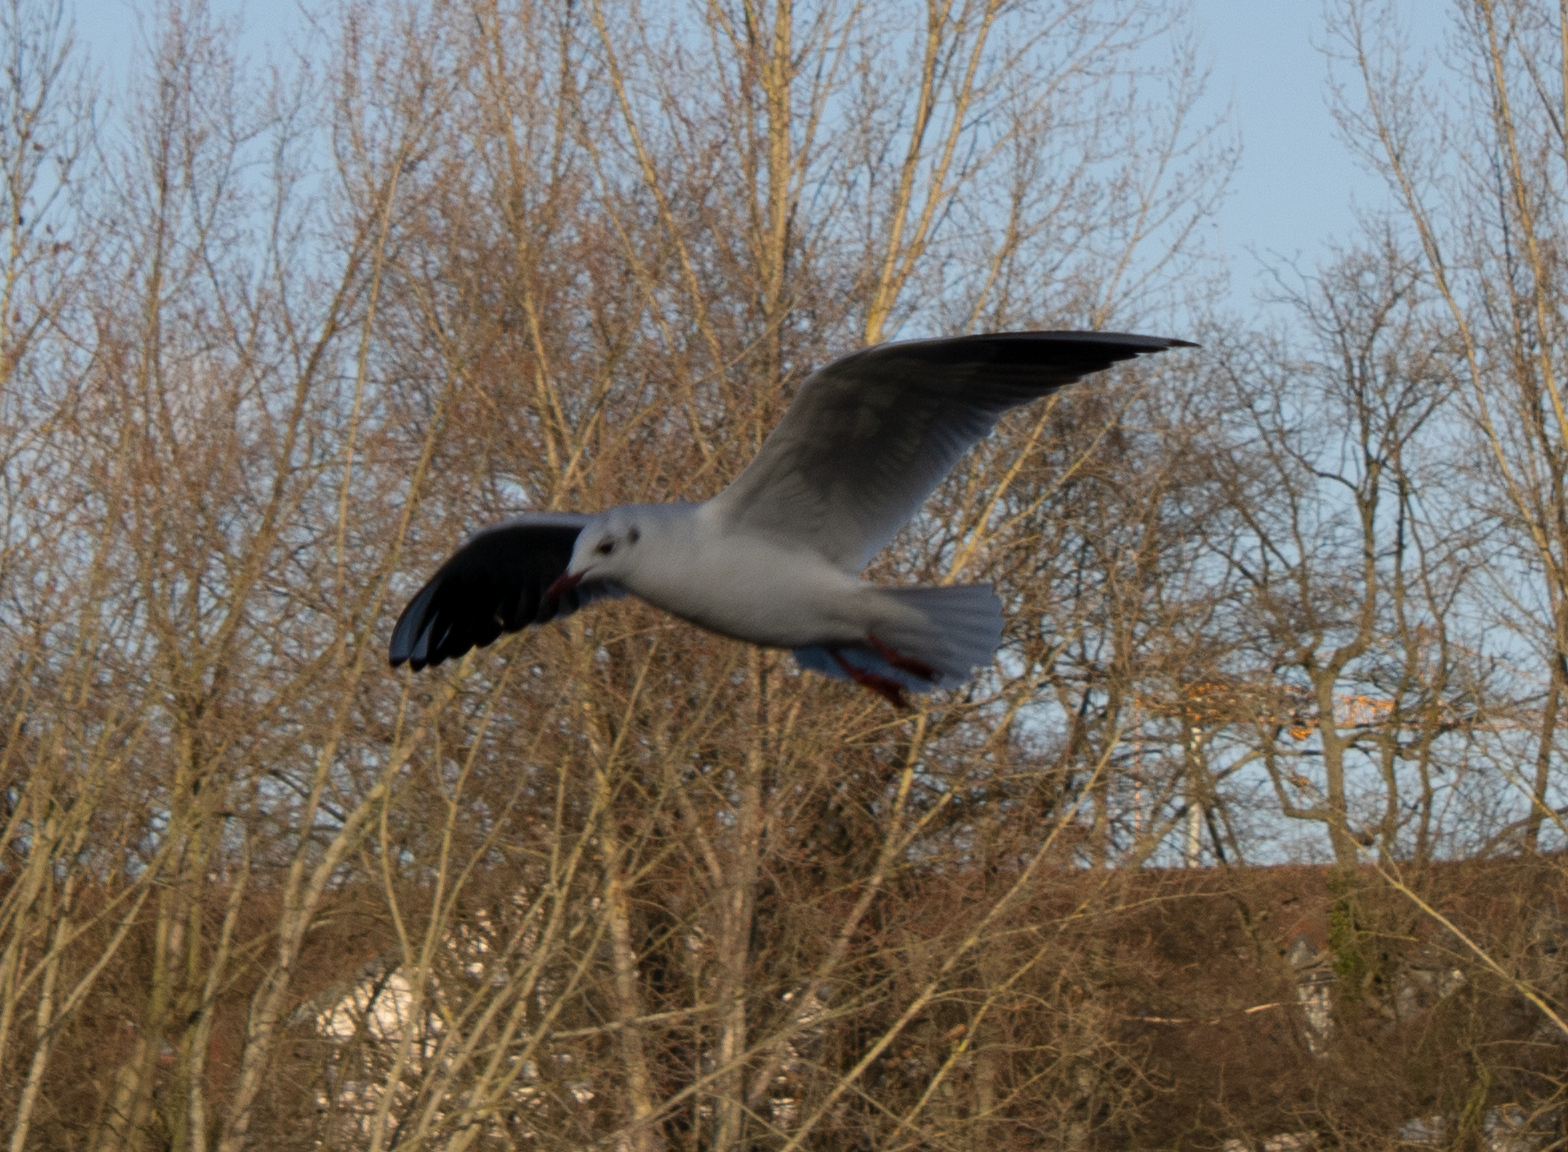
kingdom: Animalia
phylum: Chordata
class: Aves
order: Charadriiformes
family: Laridae
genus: Chroicocephalus
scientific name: Chroicocephalus ridibundus
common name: Black-headed gull
